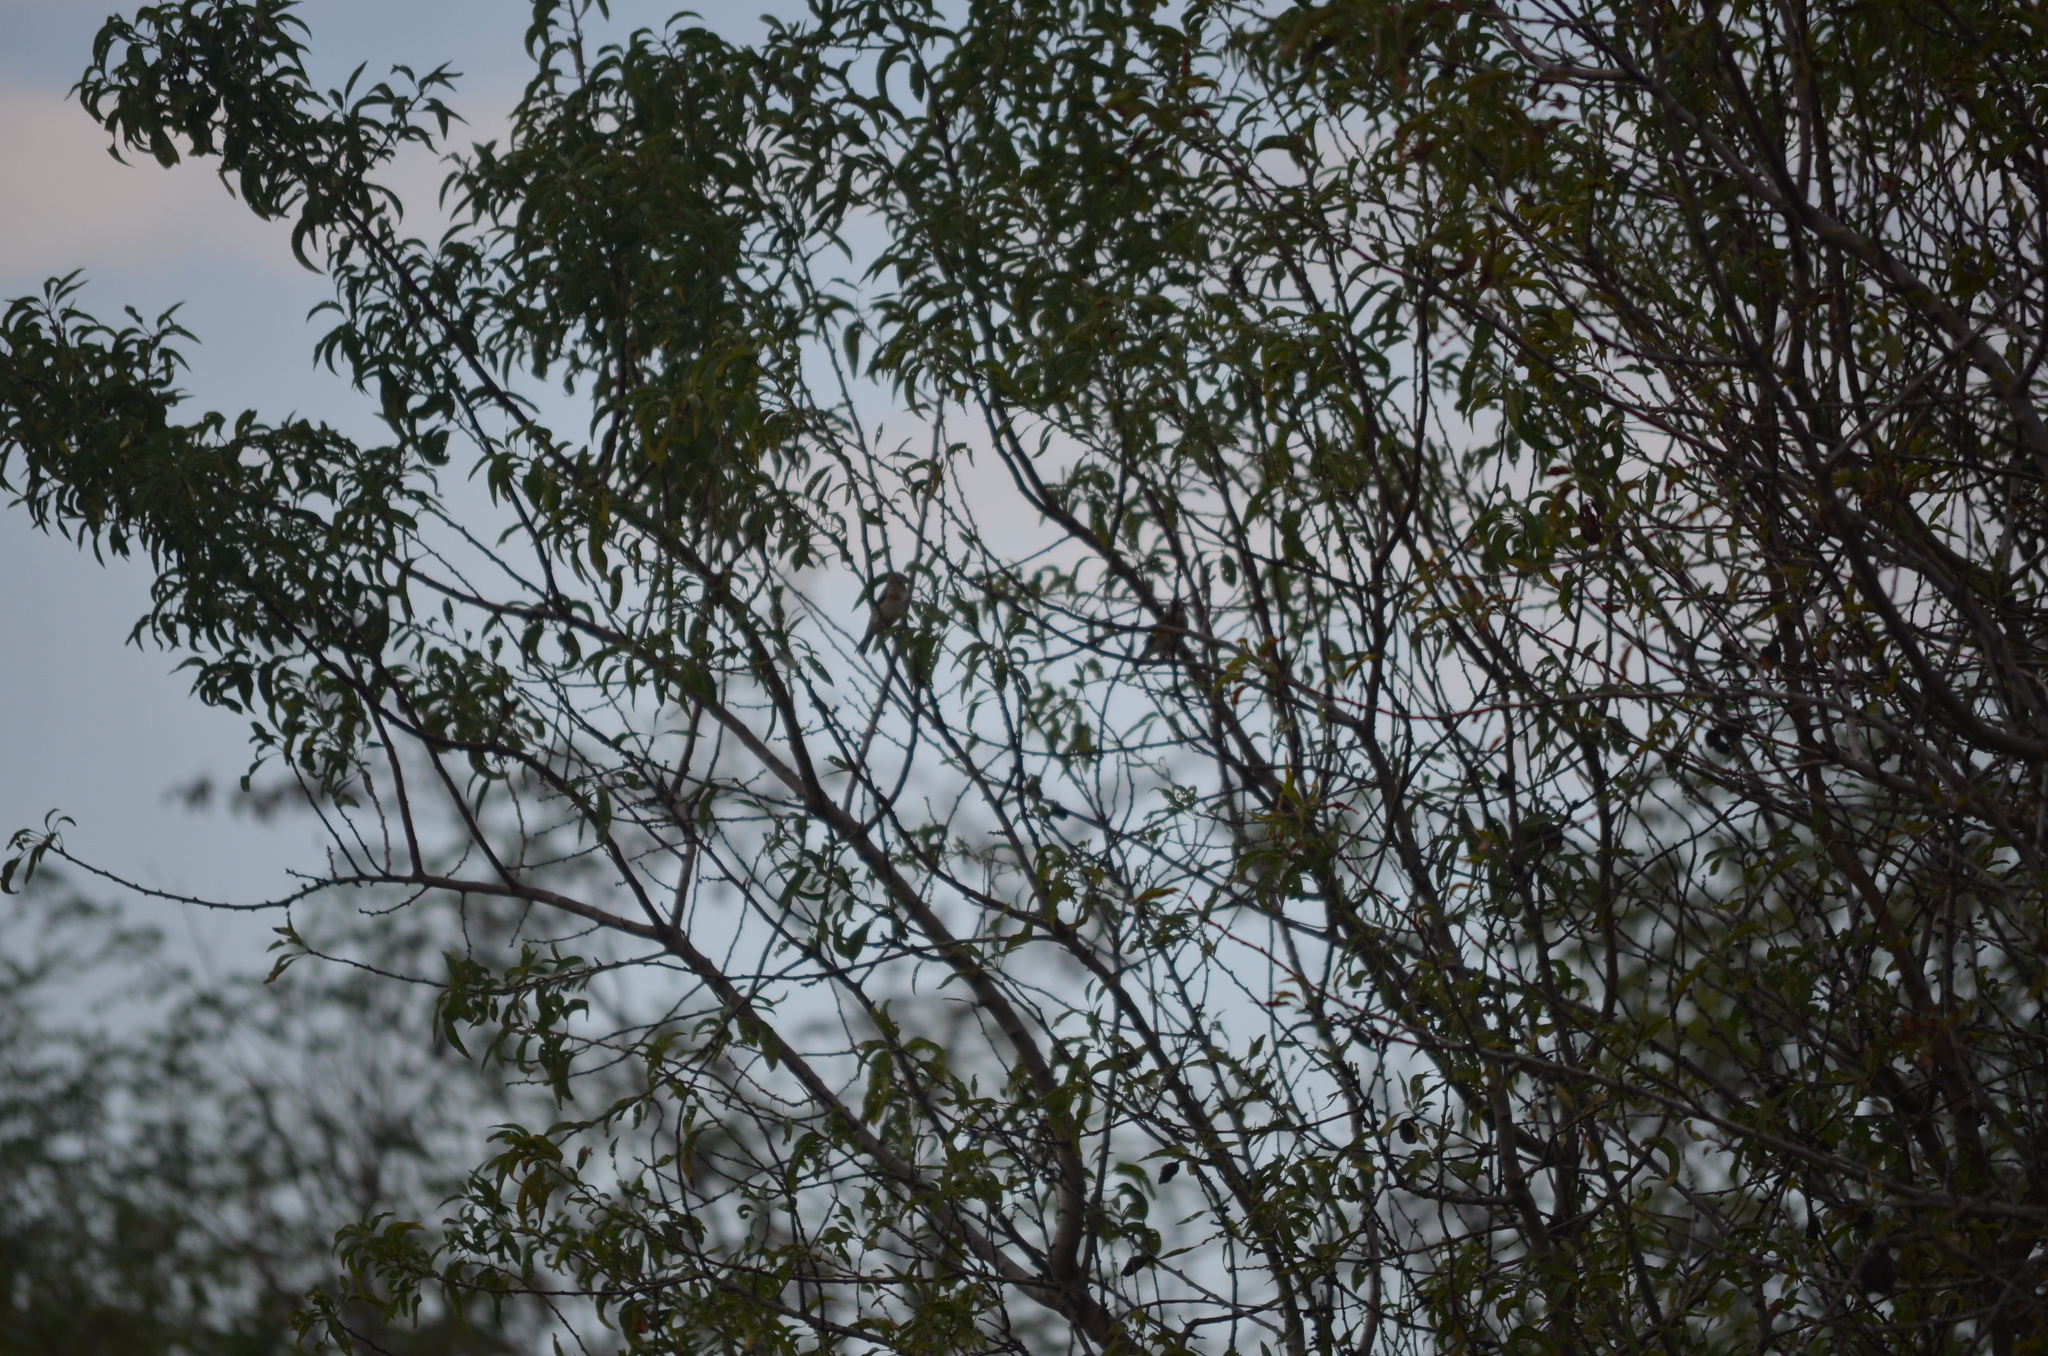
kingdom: Animalia
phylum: Chordata
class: Aves
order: Passeriformes
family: Fringillidae
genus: Carduelis
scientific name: Carduelis carduelis
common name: European goldfinch
